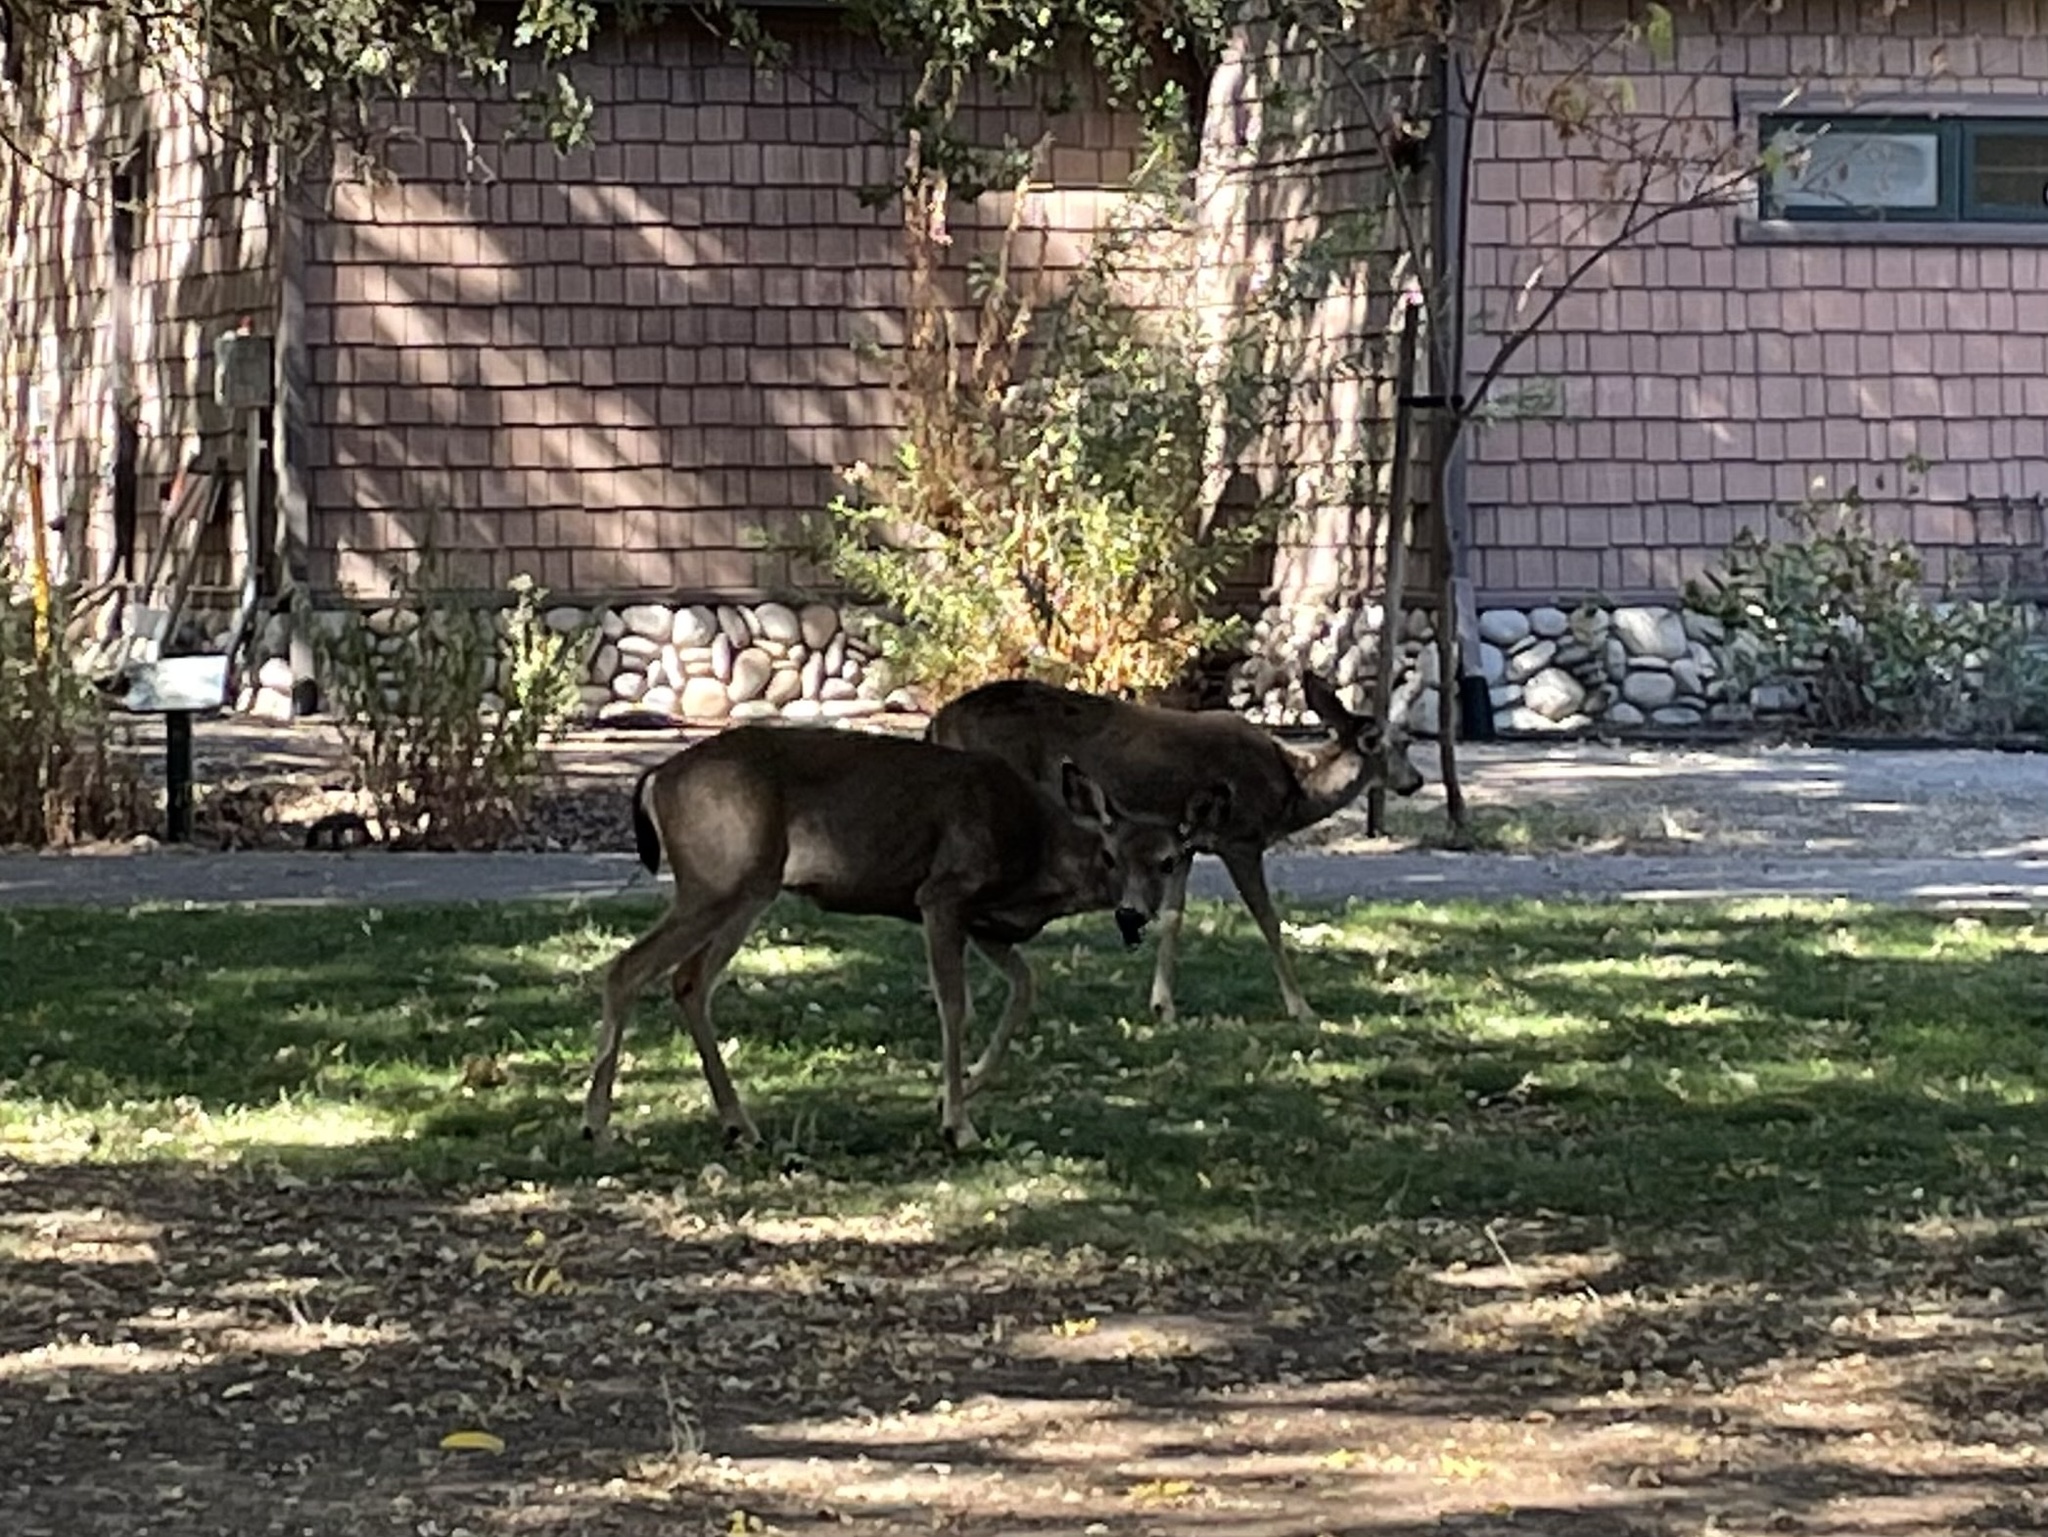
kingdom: Animalia
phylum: Chordata
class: Mammalia
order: Artiodactyla
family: Cervidae
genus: Odocoileus
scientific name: Odocoileus hemionus
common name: Mule deer
